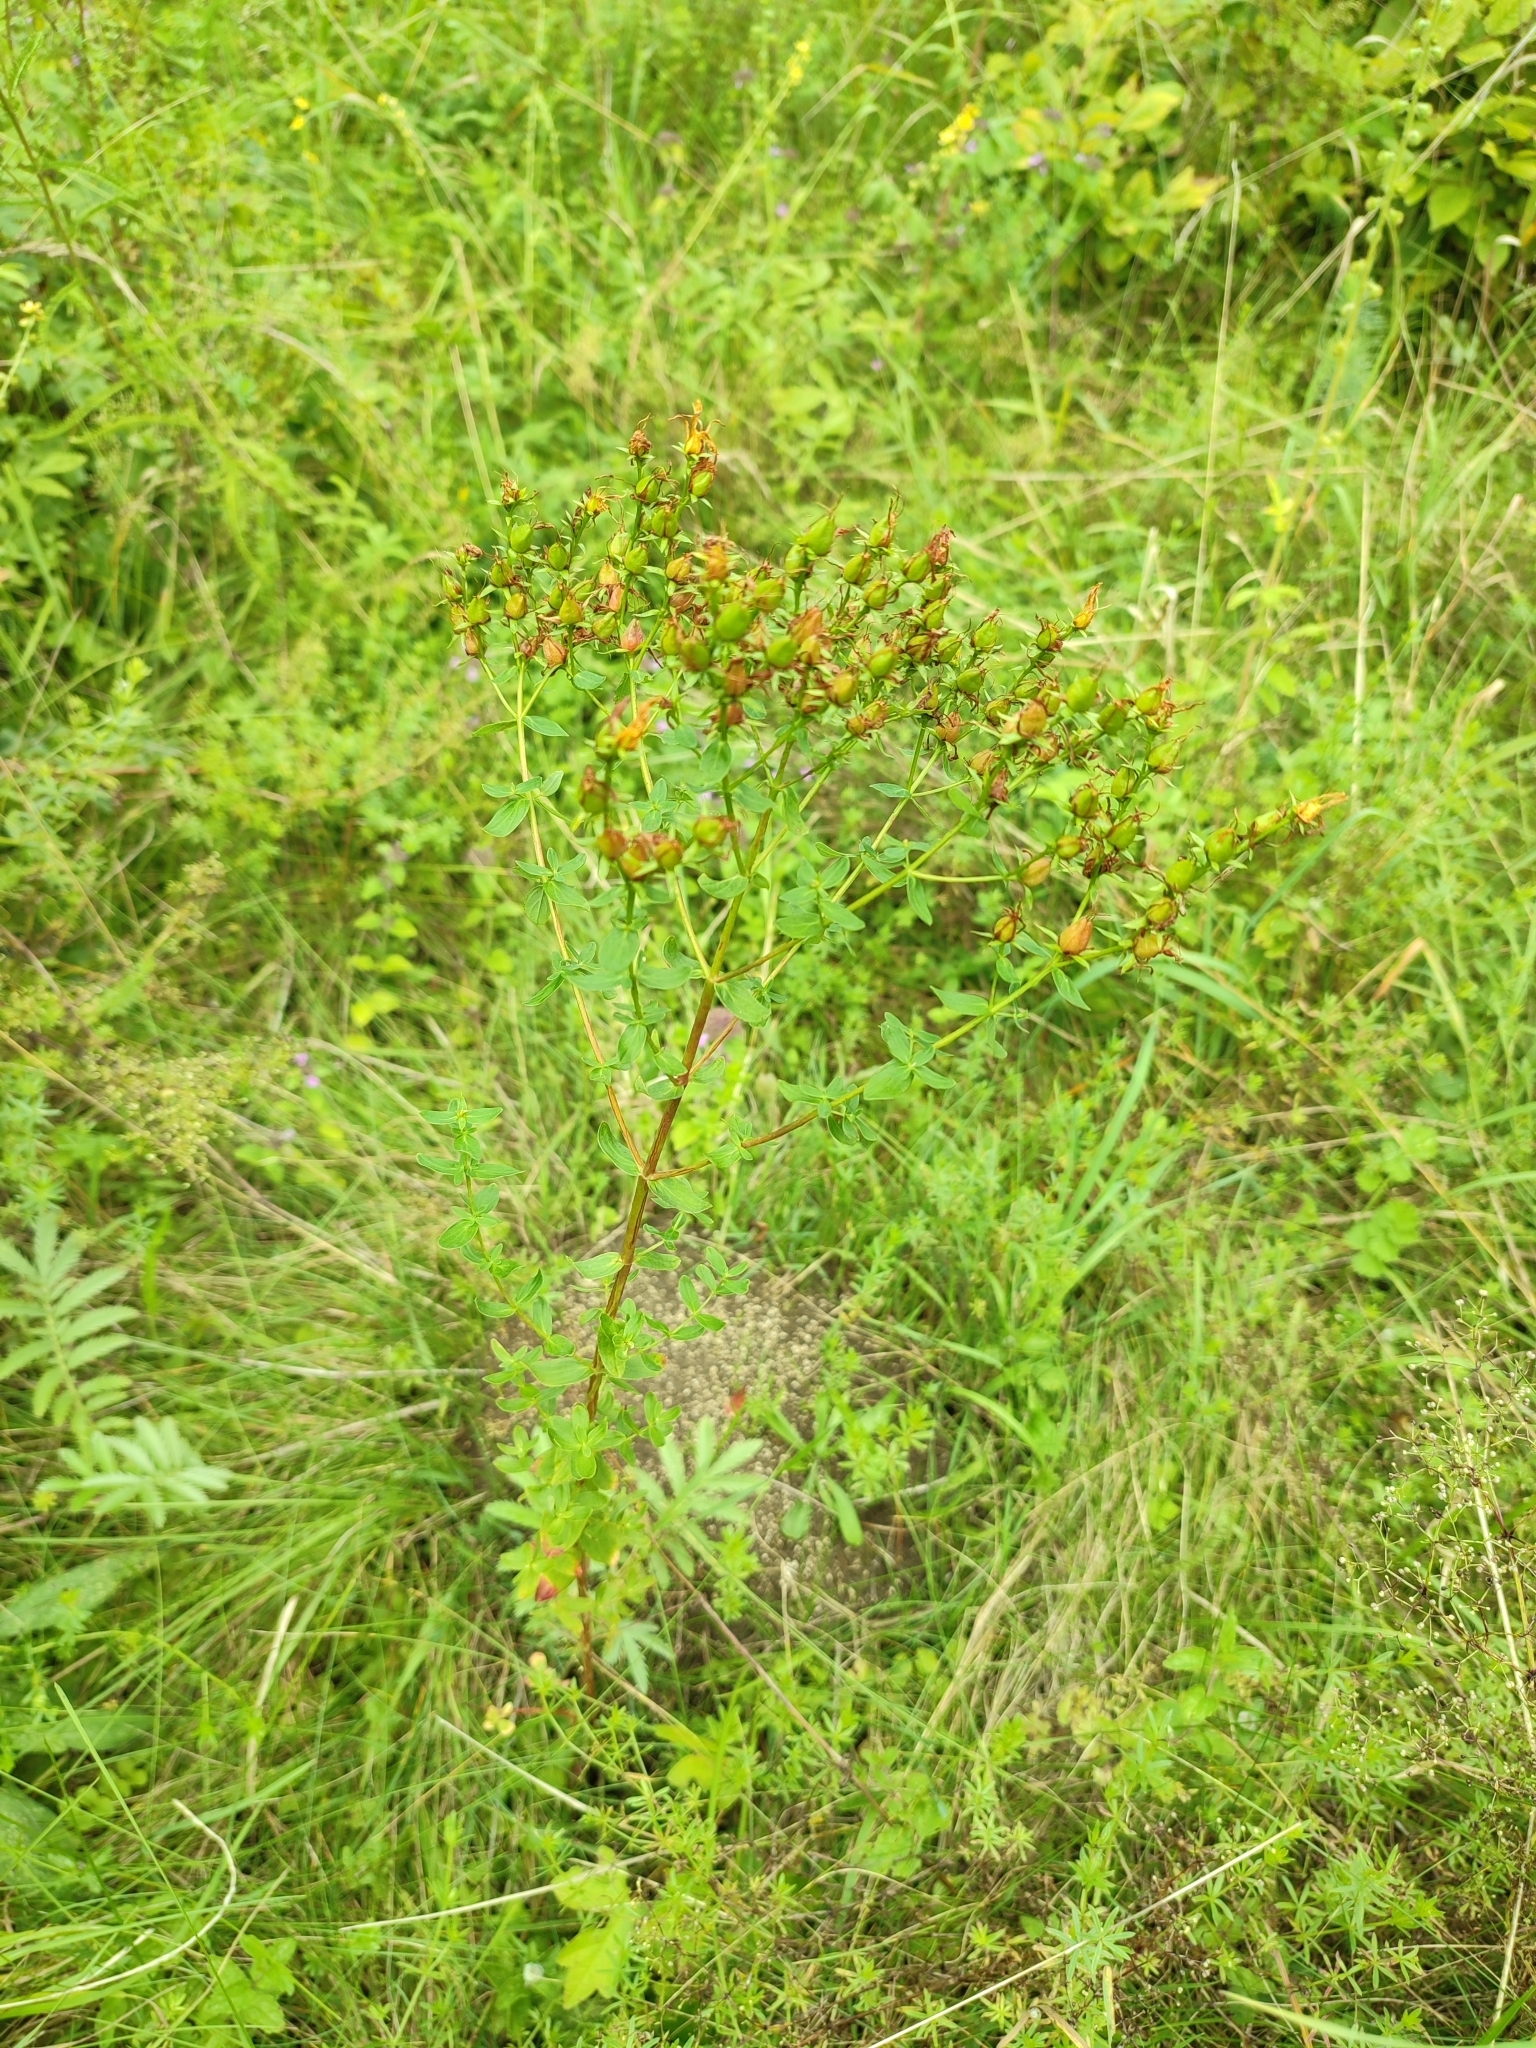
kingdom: Plantae
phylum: Tracheophyta
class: Magnoliopsida
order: Malpighiales
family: Hypericaceae
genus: Hypericum
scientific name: Hypericum perforatum
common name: Common st. johnswort
